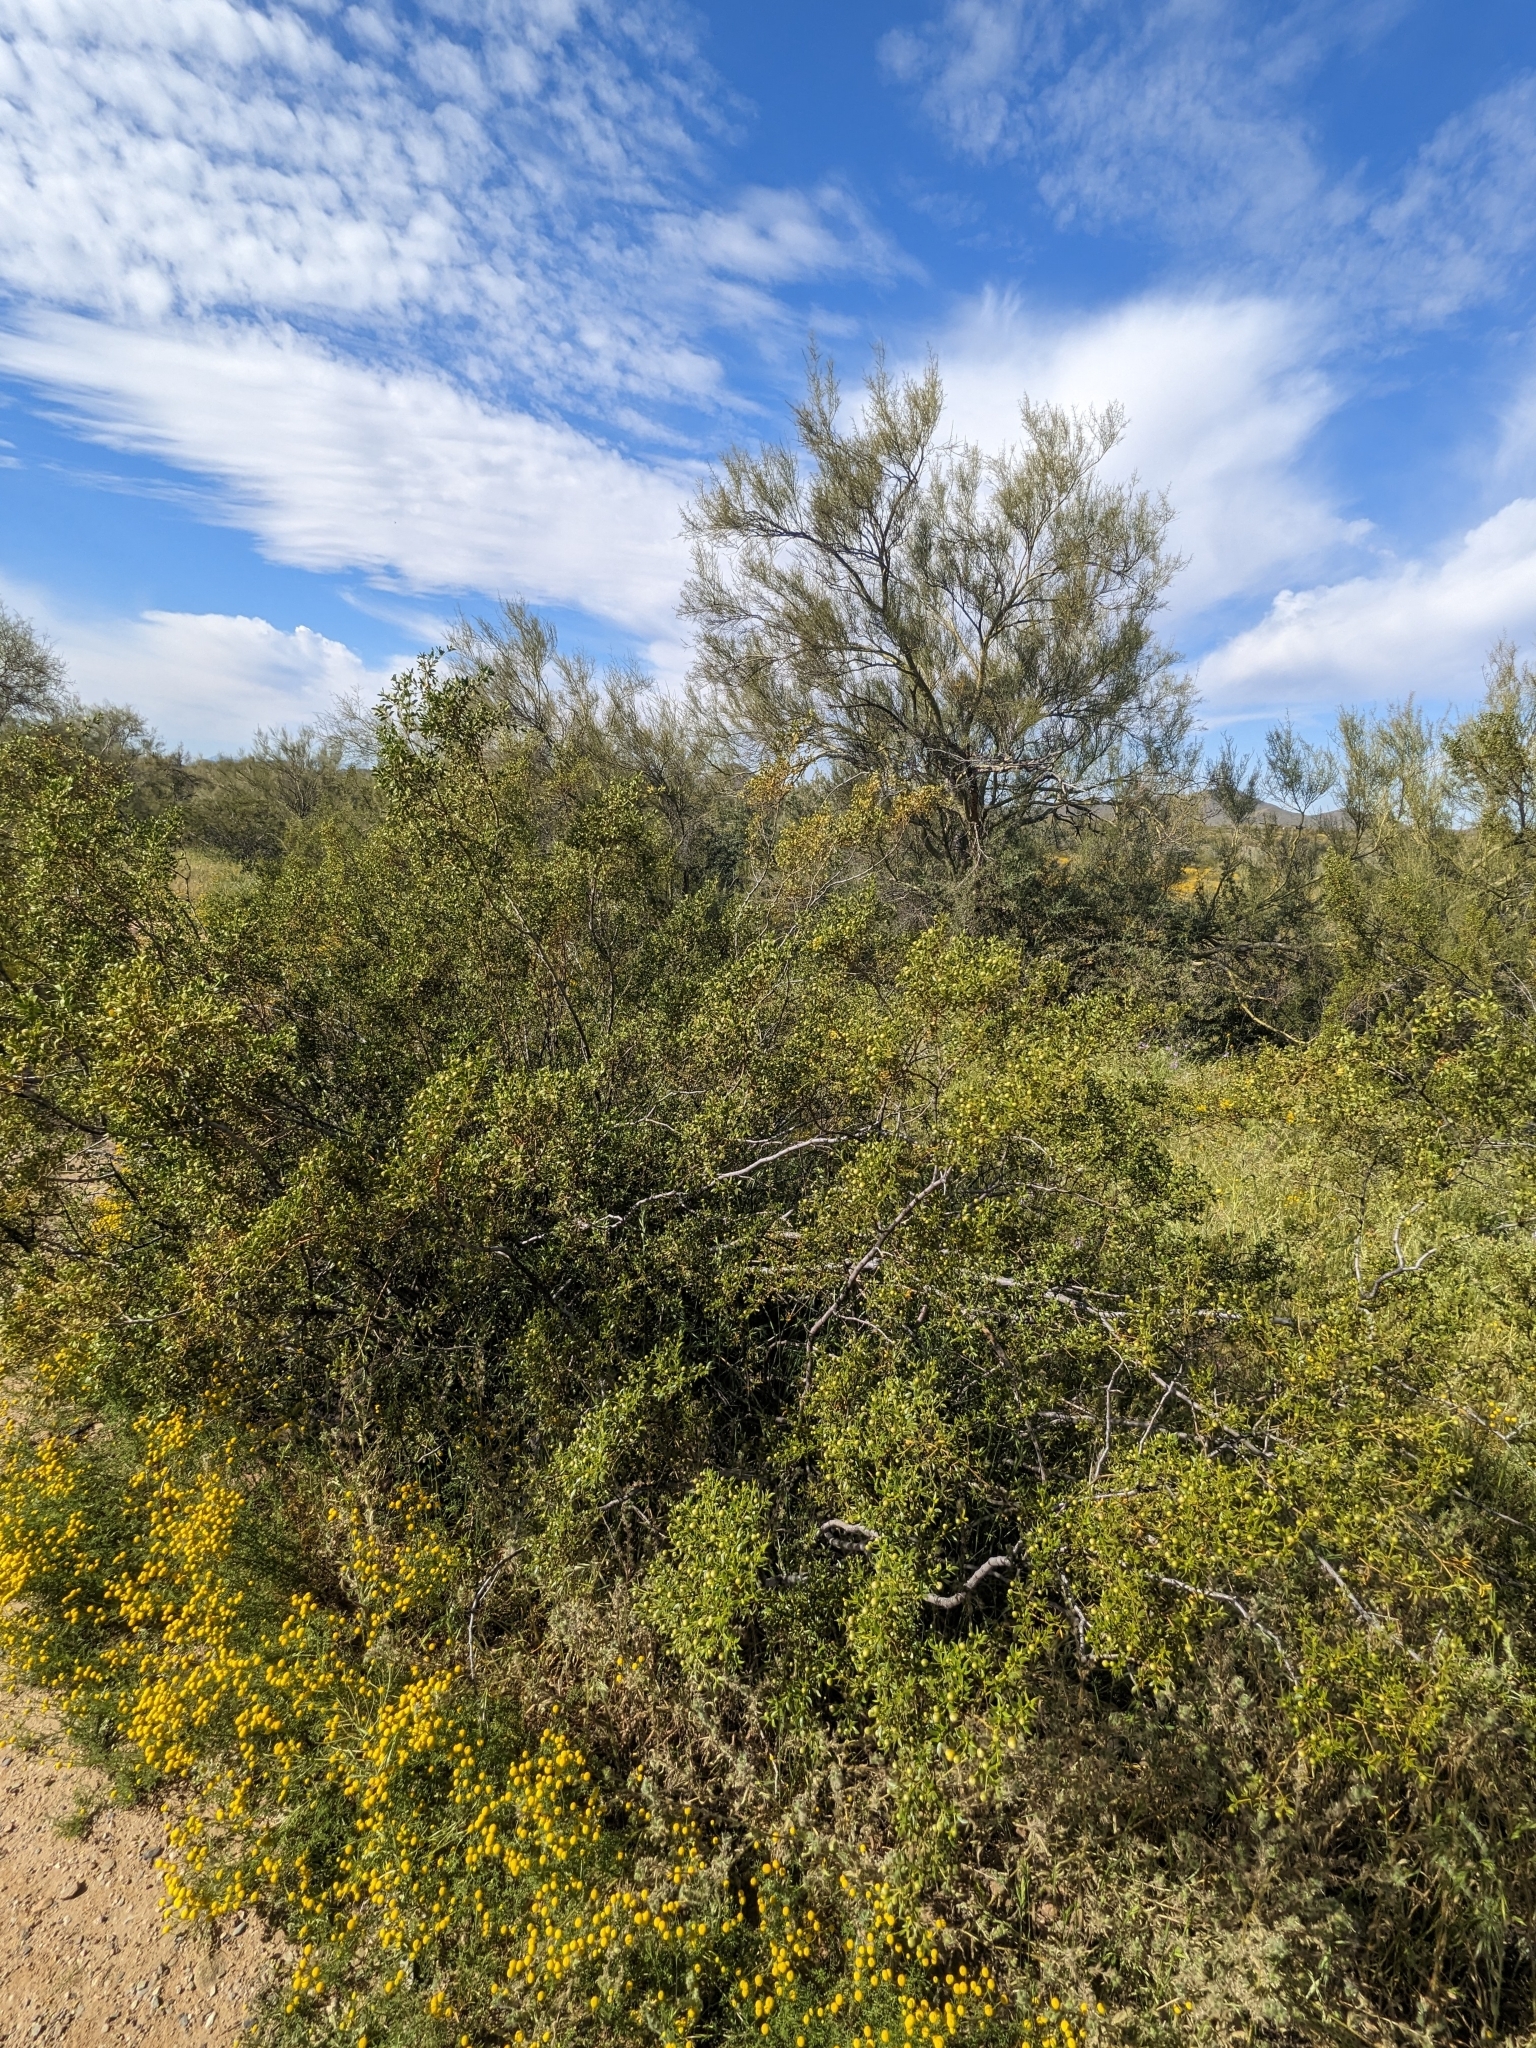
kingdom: Plantae
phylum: Tracheophyta
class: Magnoliopsida
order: Zygophyllales
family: Zygophyllaceae
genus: Larrea
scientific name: Larrea tridentata
